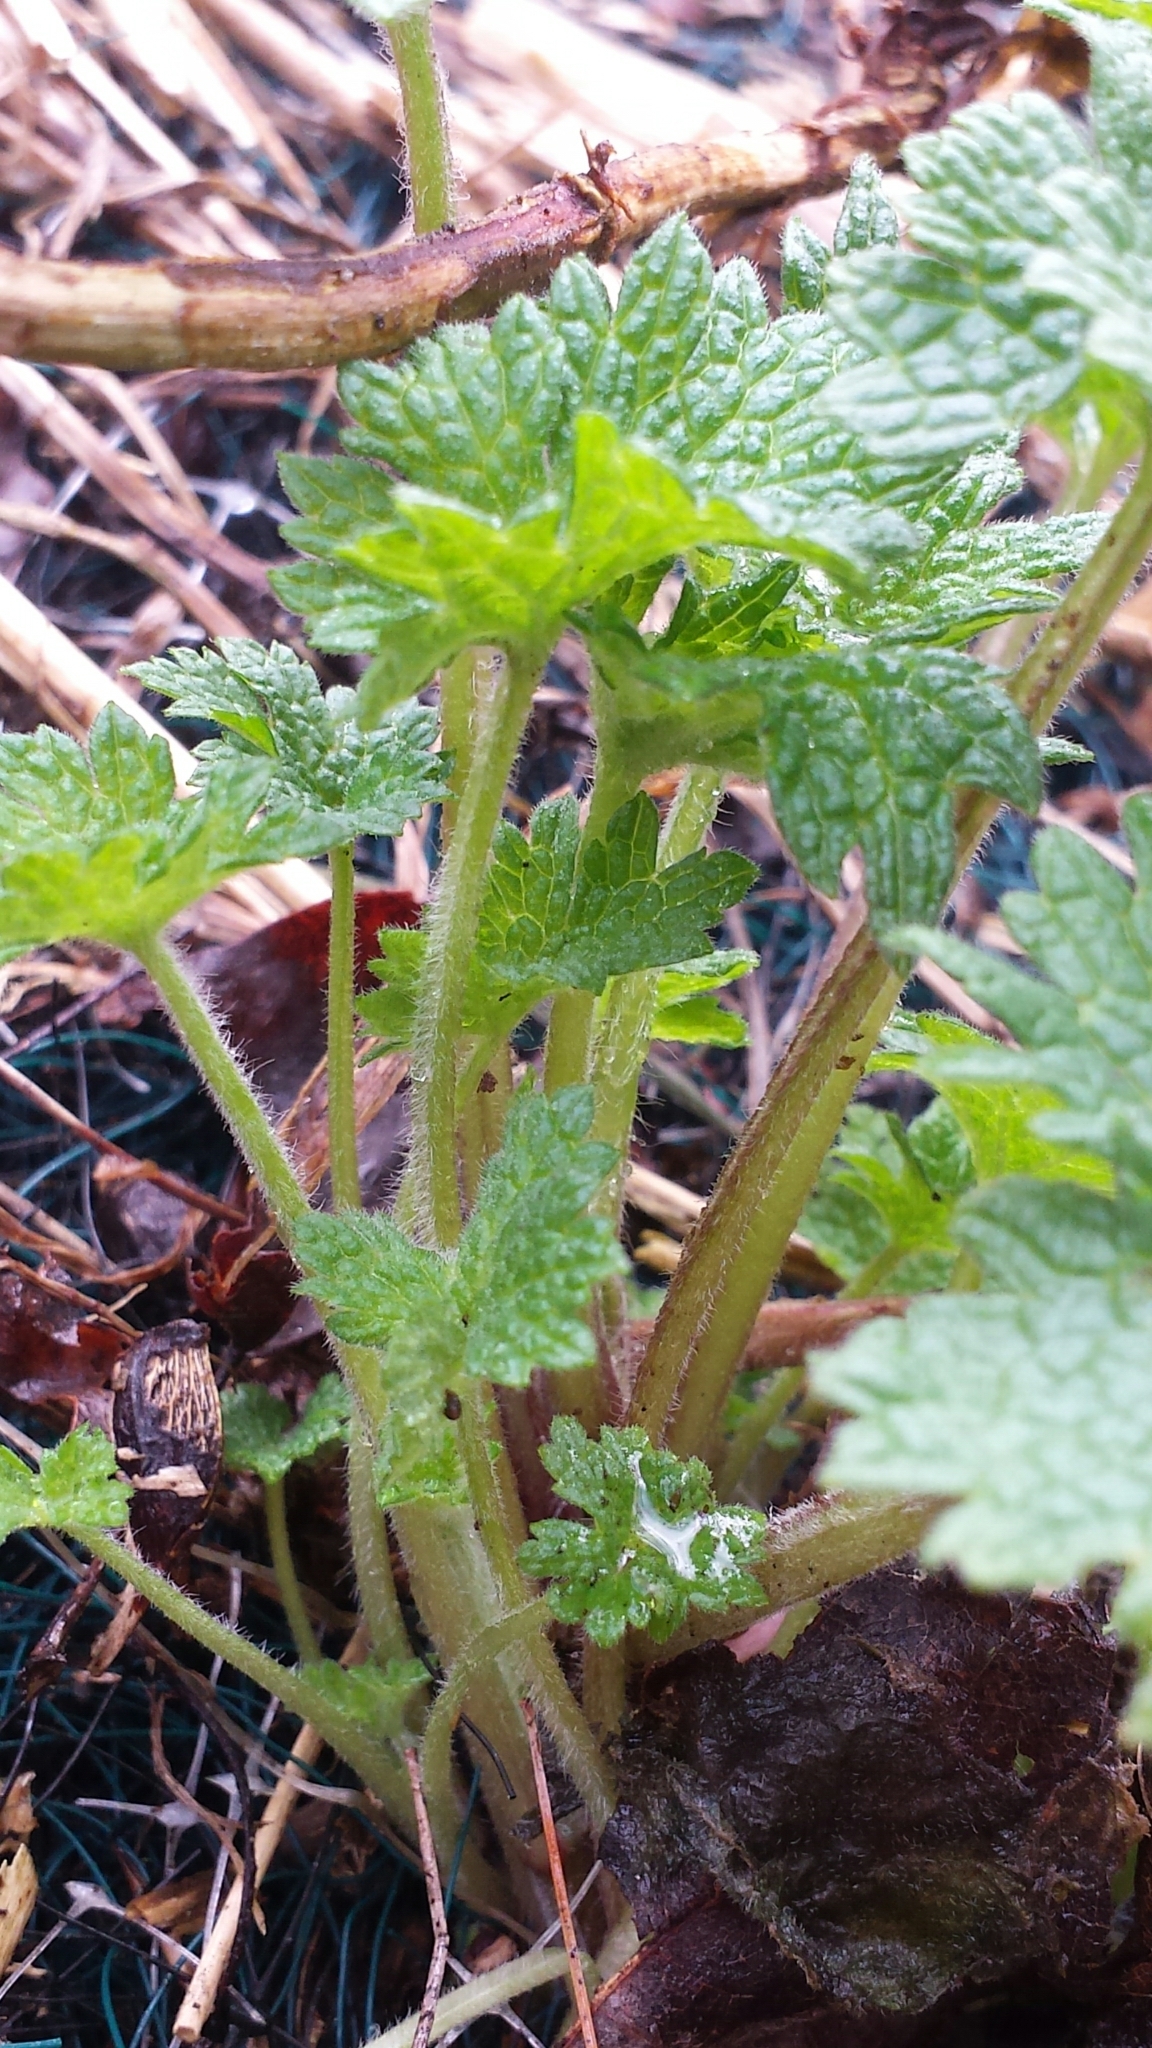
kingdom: Plantae
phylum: Tracheophyta
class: Magnoliopsida
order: Lamiales
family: Lamiaceae
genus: Leonurus
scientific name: Leonurus cardiaca
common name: Motherwort
